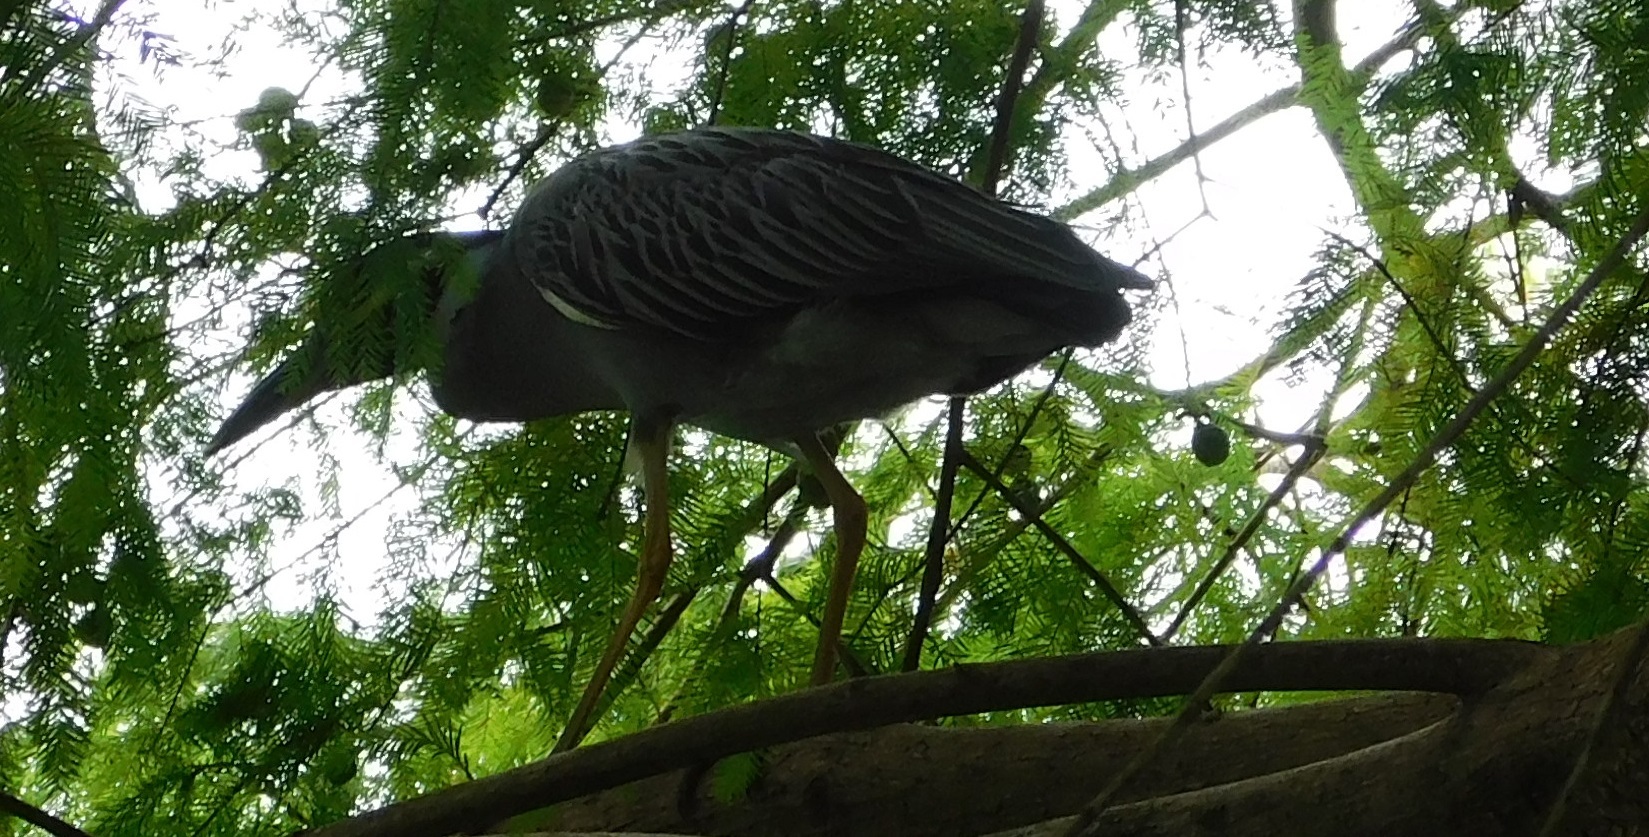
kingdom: Animalia
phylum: Chordata
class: Aves
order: Pelecaniformes
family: Ardeidae
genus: Nyctanassa
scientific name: Nyctanassa violacea
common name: Yellow-crowned night heron
